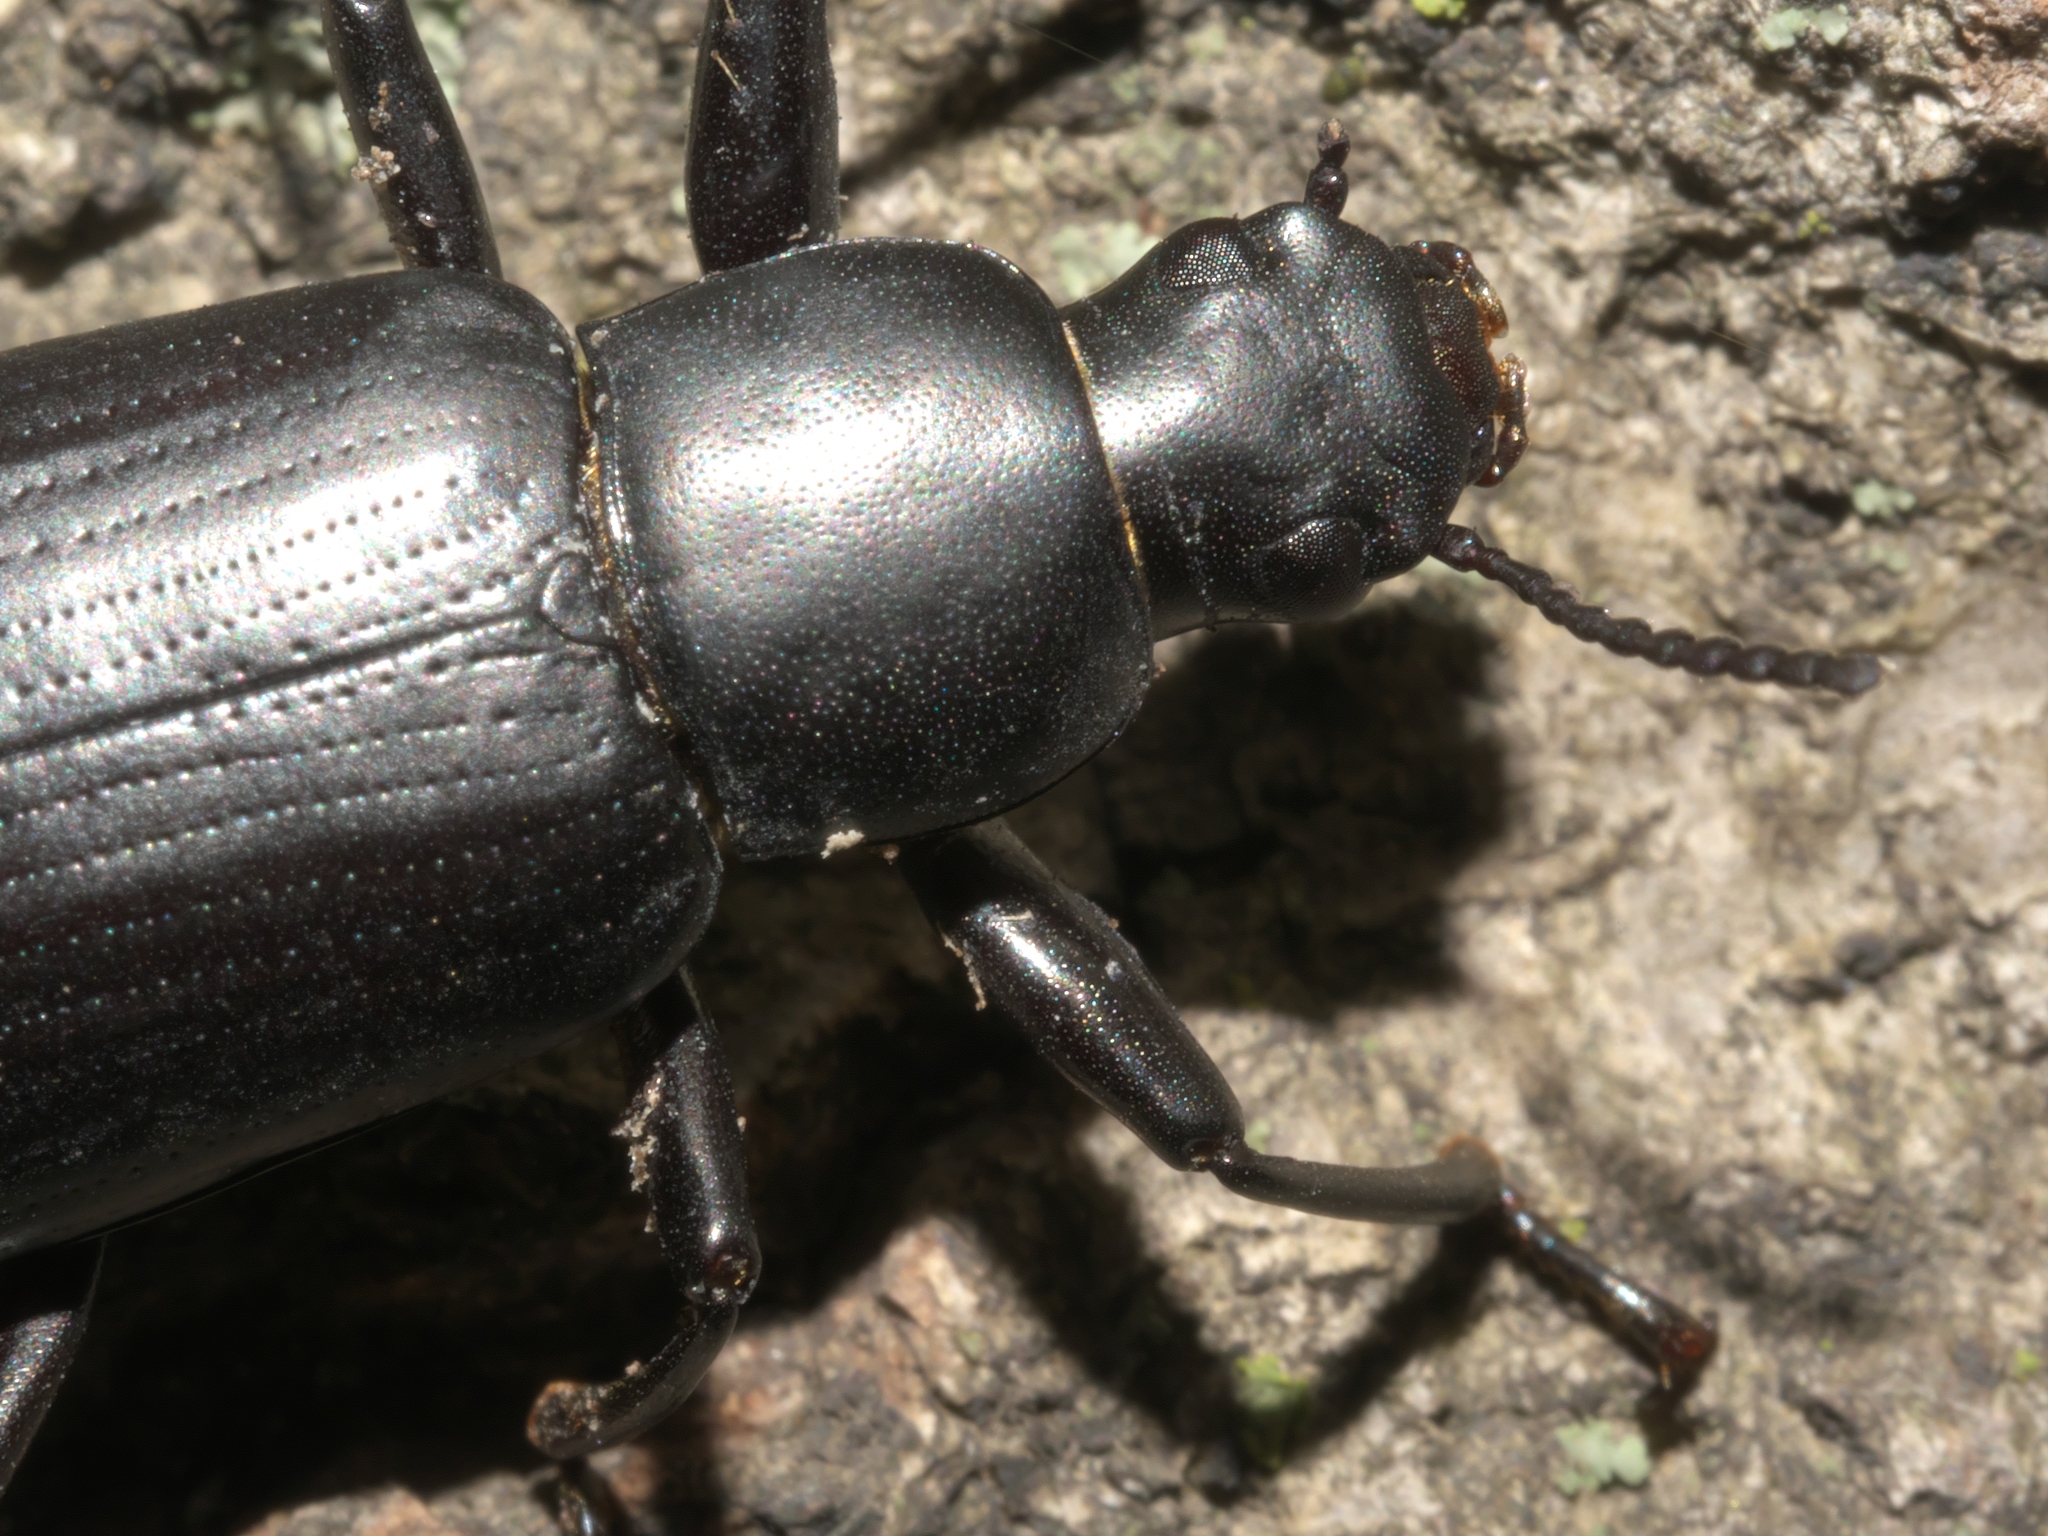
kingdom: Animalia
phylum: Arthropoda
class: Insecta
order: Coleoptera
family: Tenebrionidae
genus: Alobates
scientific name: Alobates pensylvanicus
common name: False mealworm beetle
